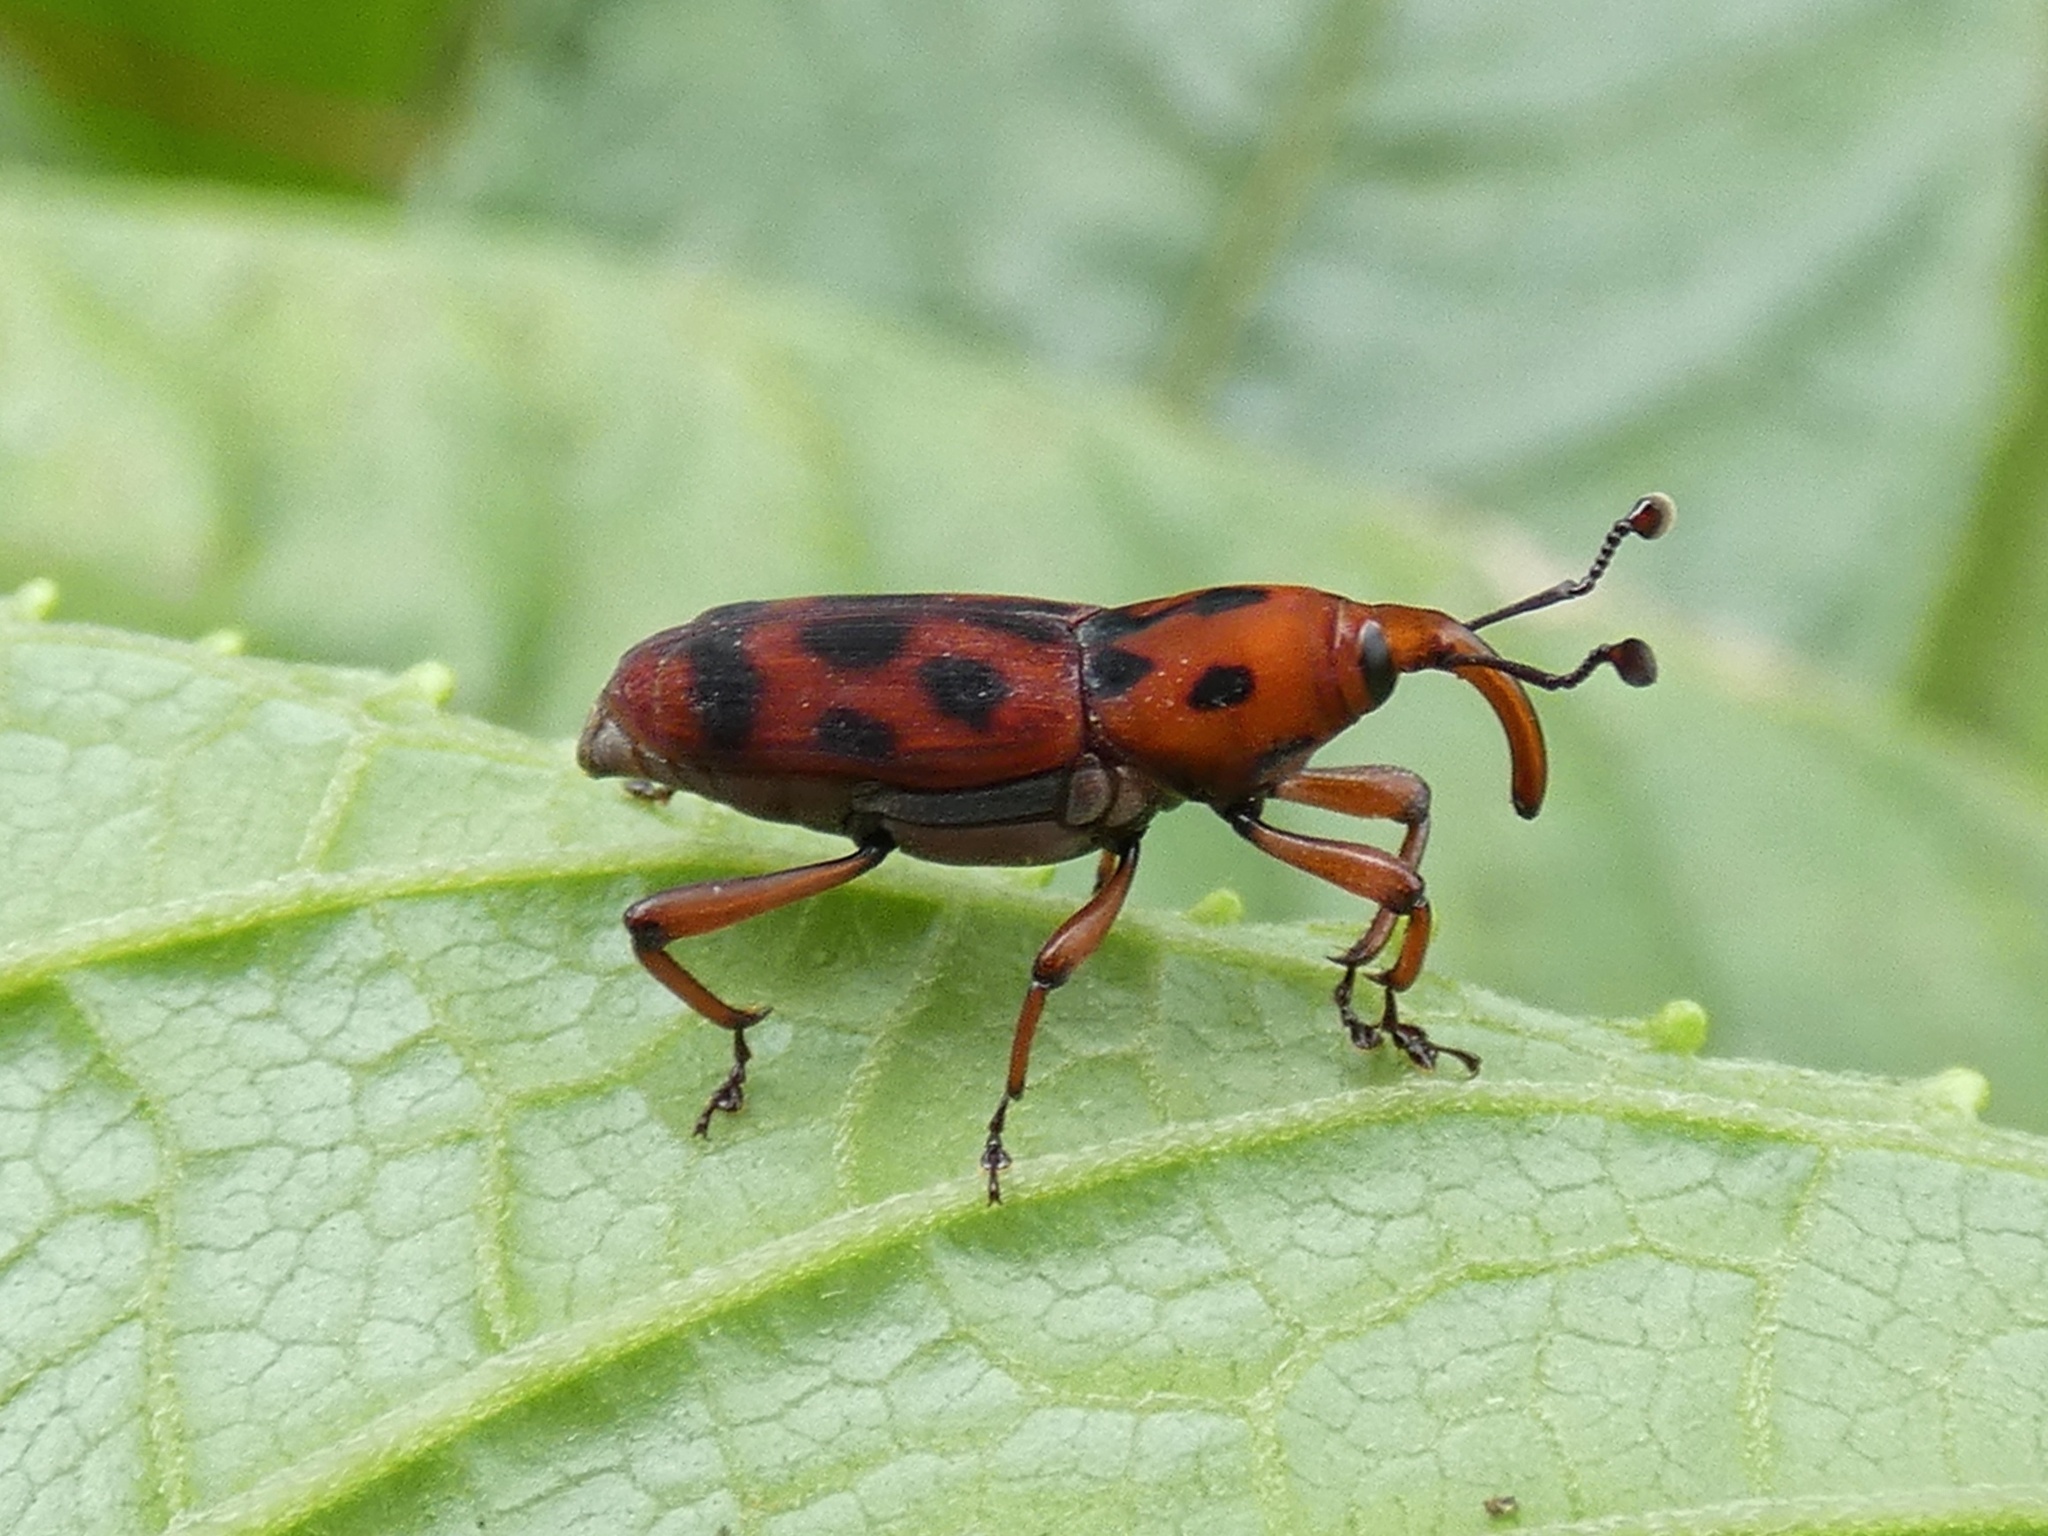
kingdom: Animalia
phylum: Arthropoda
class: Insecta
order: Coleoptera
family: Dryophthoridae
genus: Rhodobaenus
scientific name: Rhodobaenus pantherinus
